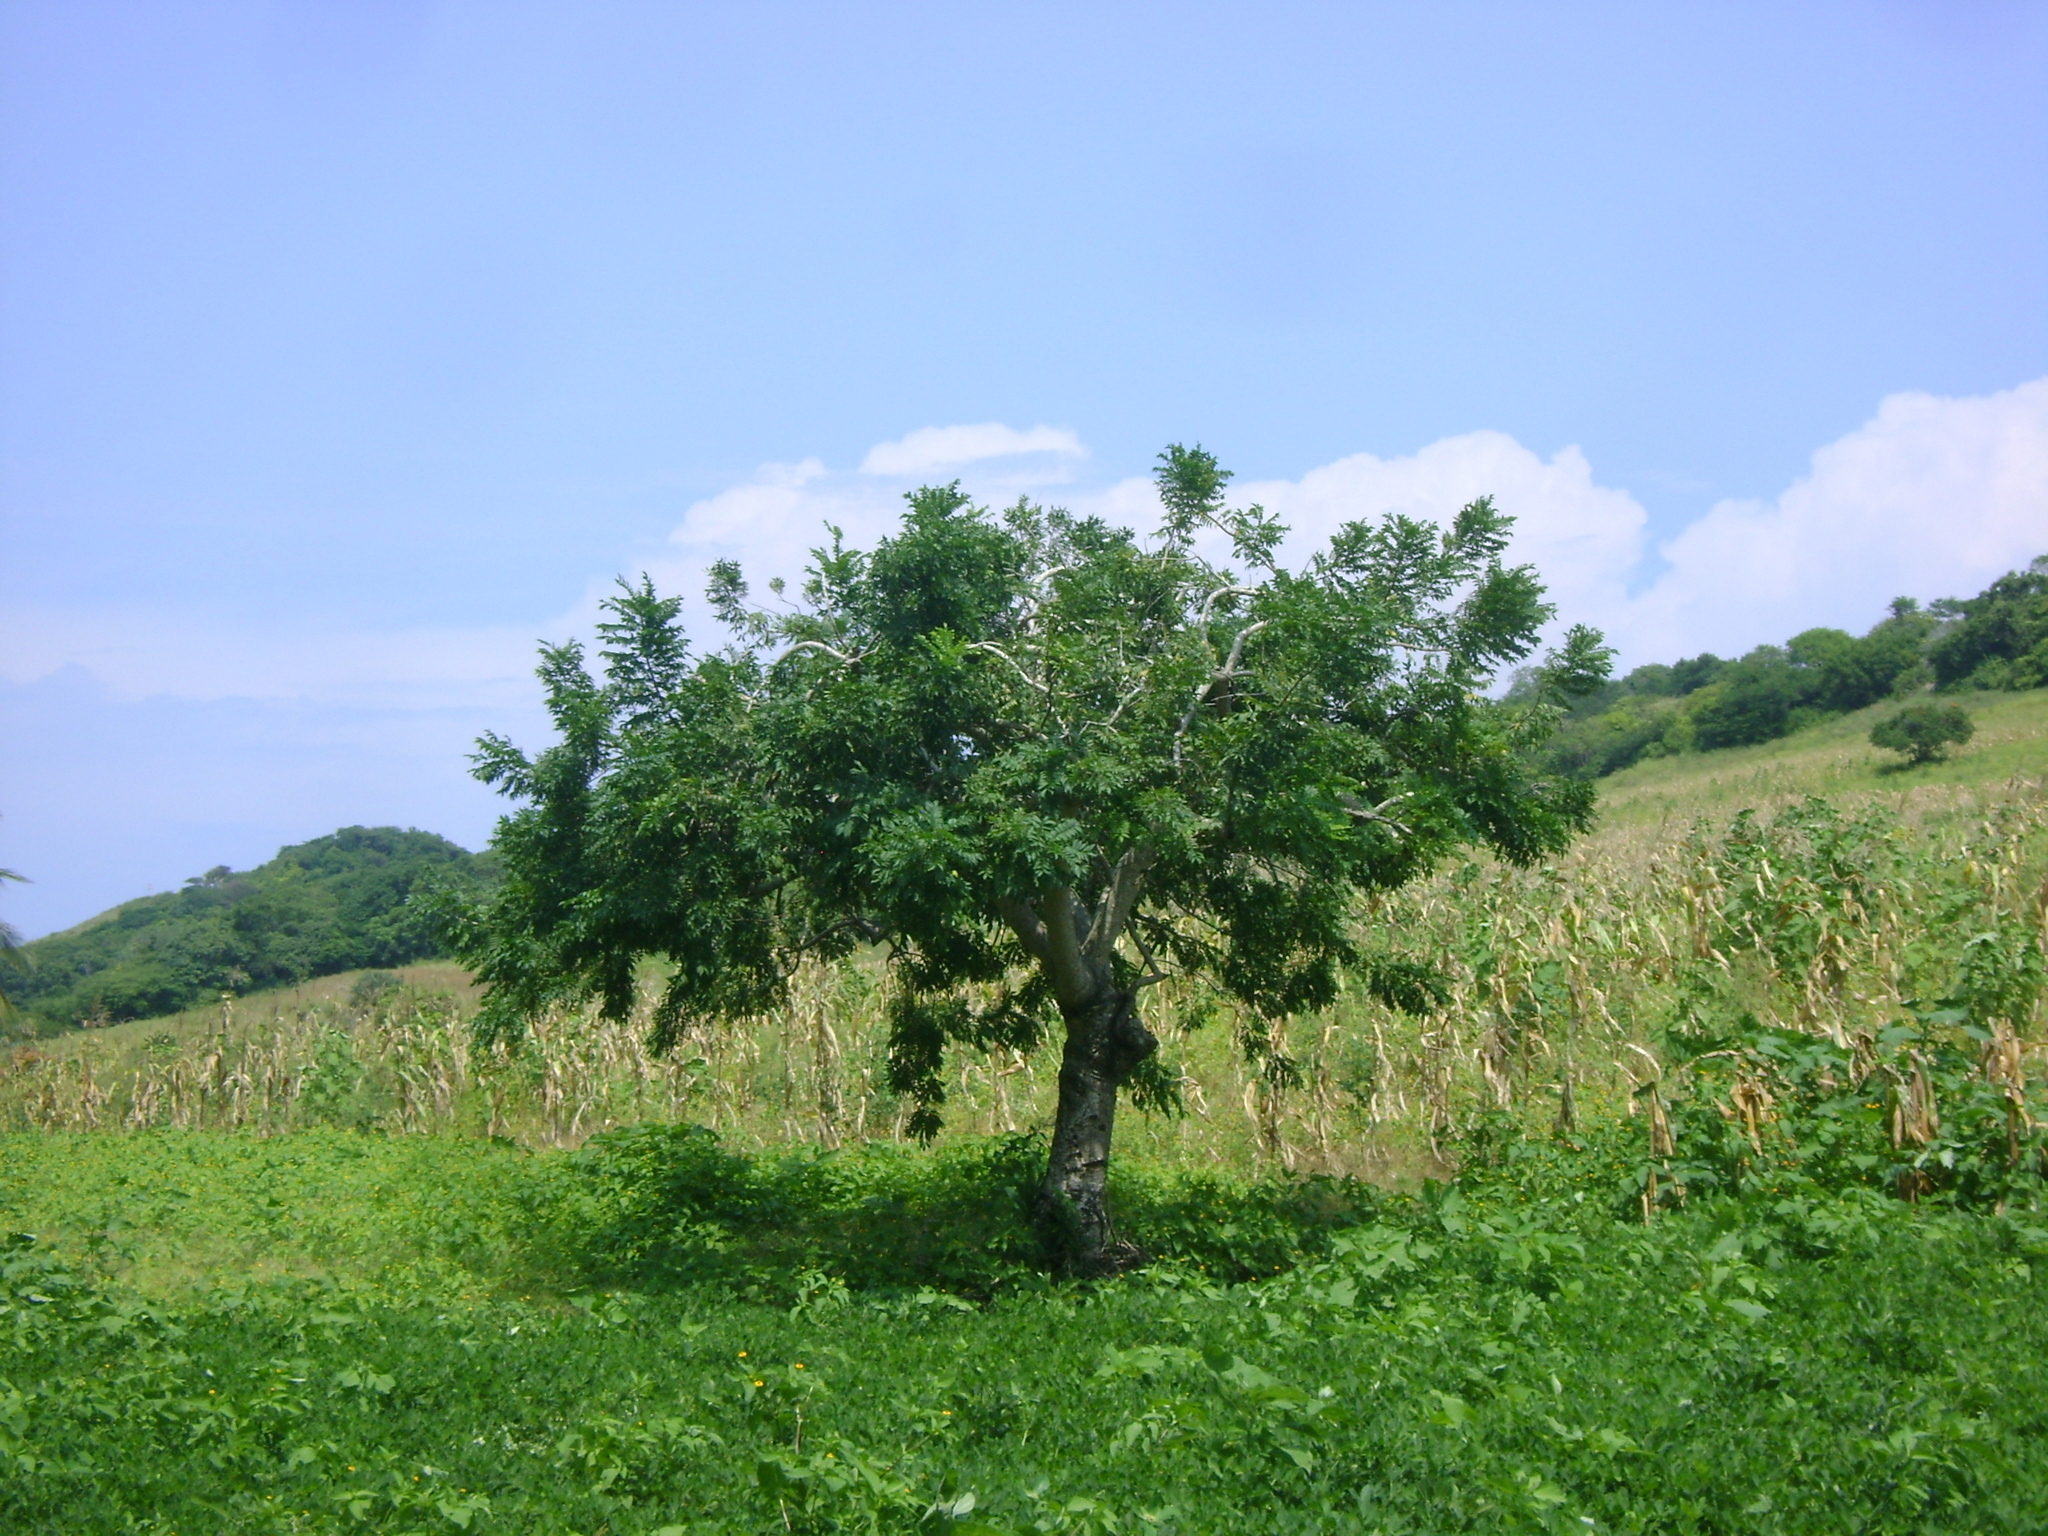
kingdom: Plantae
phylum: Tracheophyta
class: Magnoliopsida
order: Sapindales
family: Anacardiaceae
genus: Spondias
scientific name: Spondias purpurea
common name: Purple mombin
